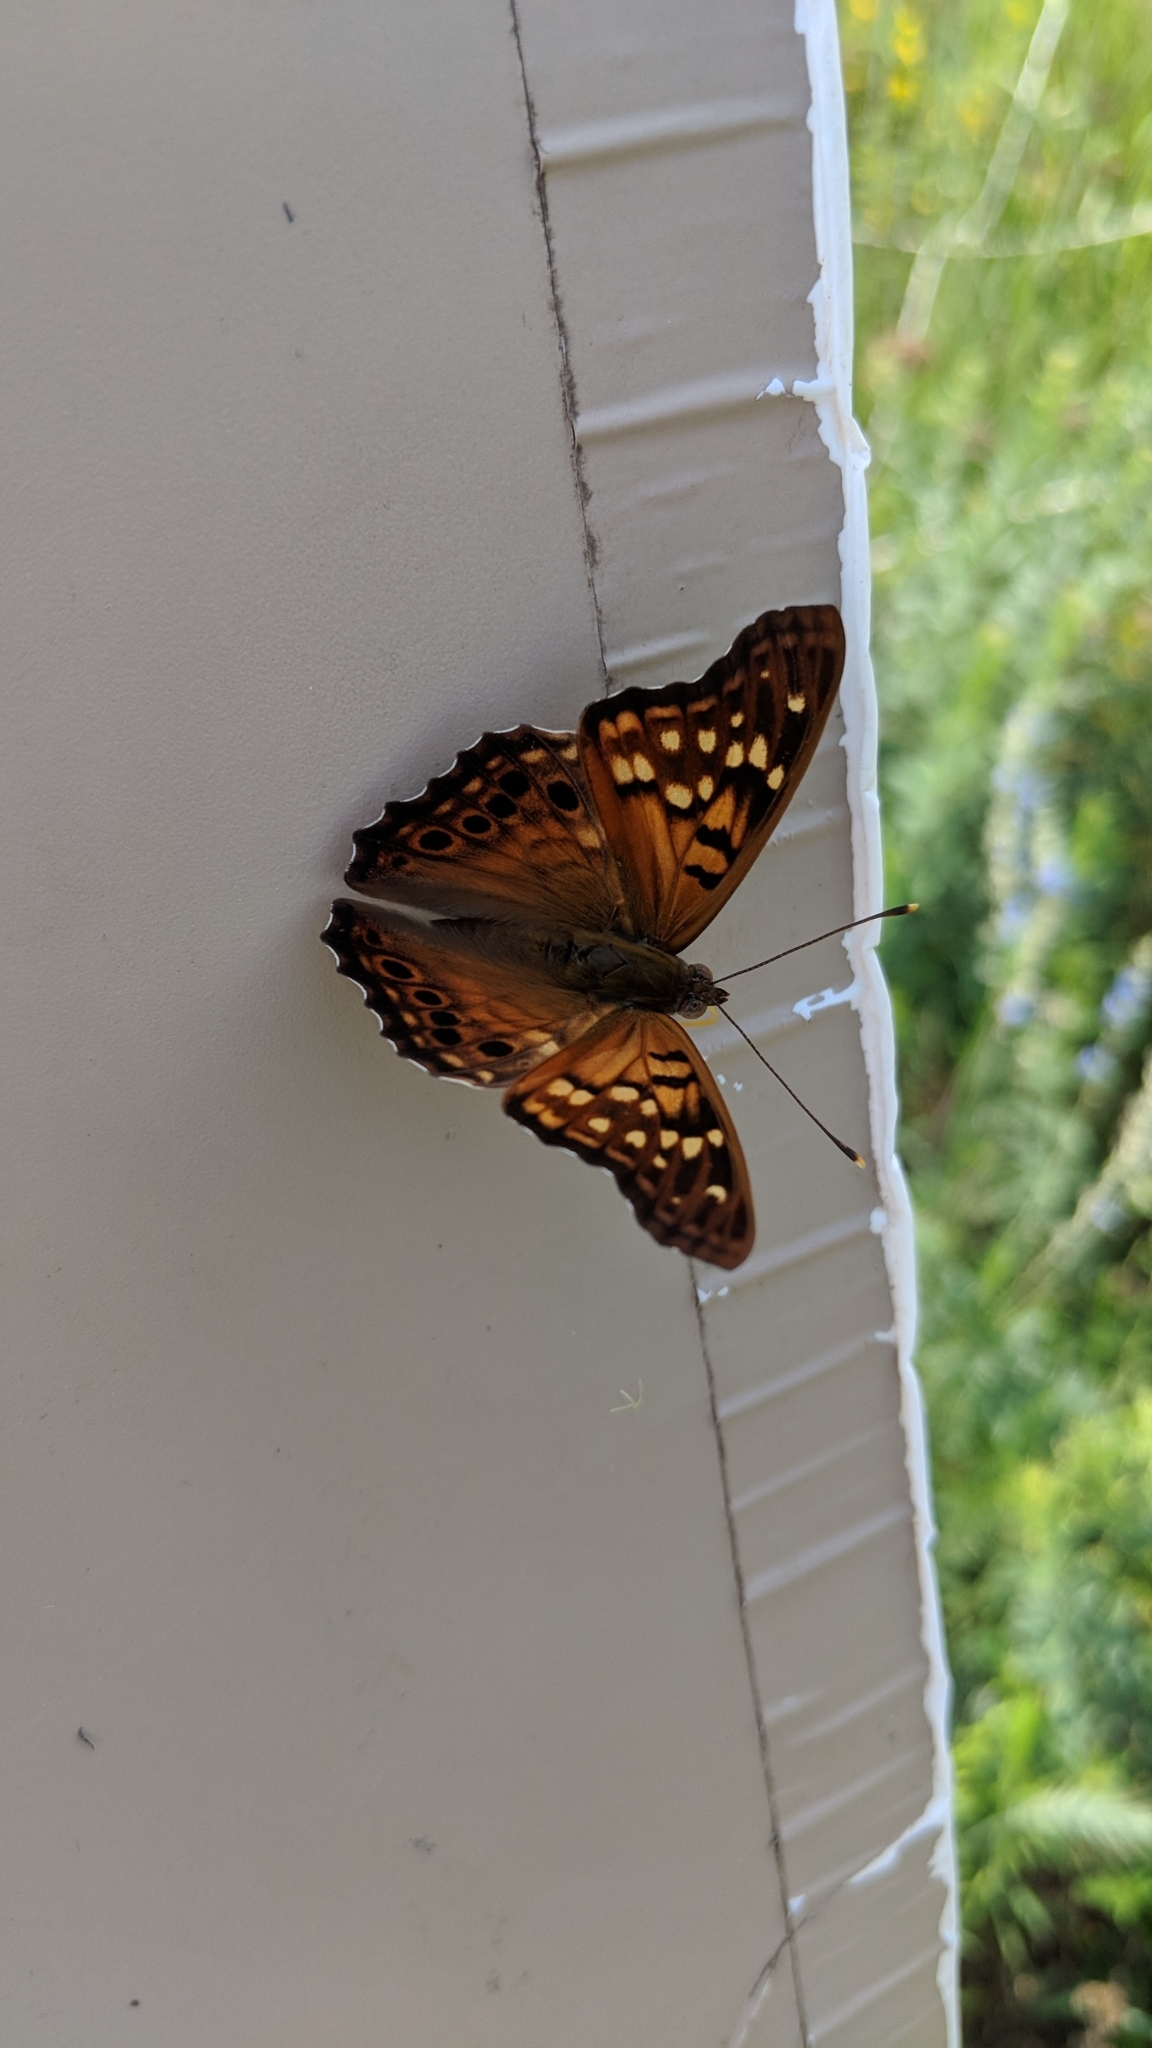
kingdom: Animalia
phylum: Arthropoda
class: Insecta
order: Lepidoptera
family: Nymphalidae
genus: Asterocampa
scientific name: Asterocampa clyton
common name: Tawny emperor
